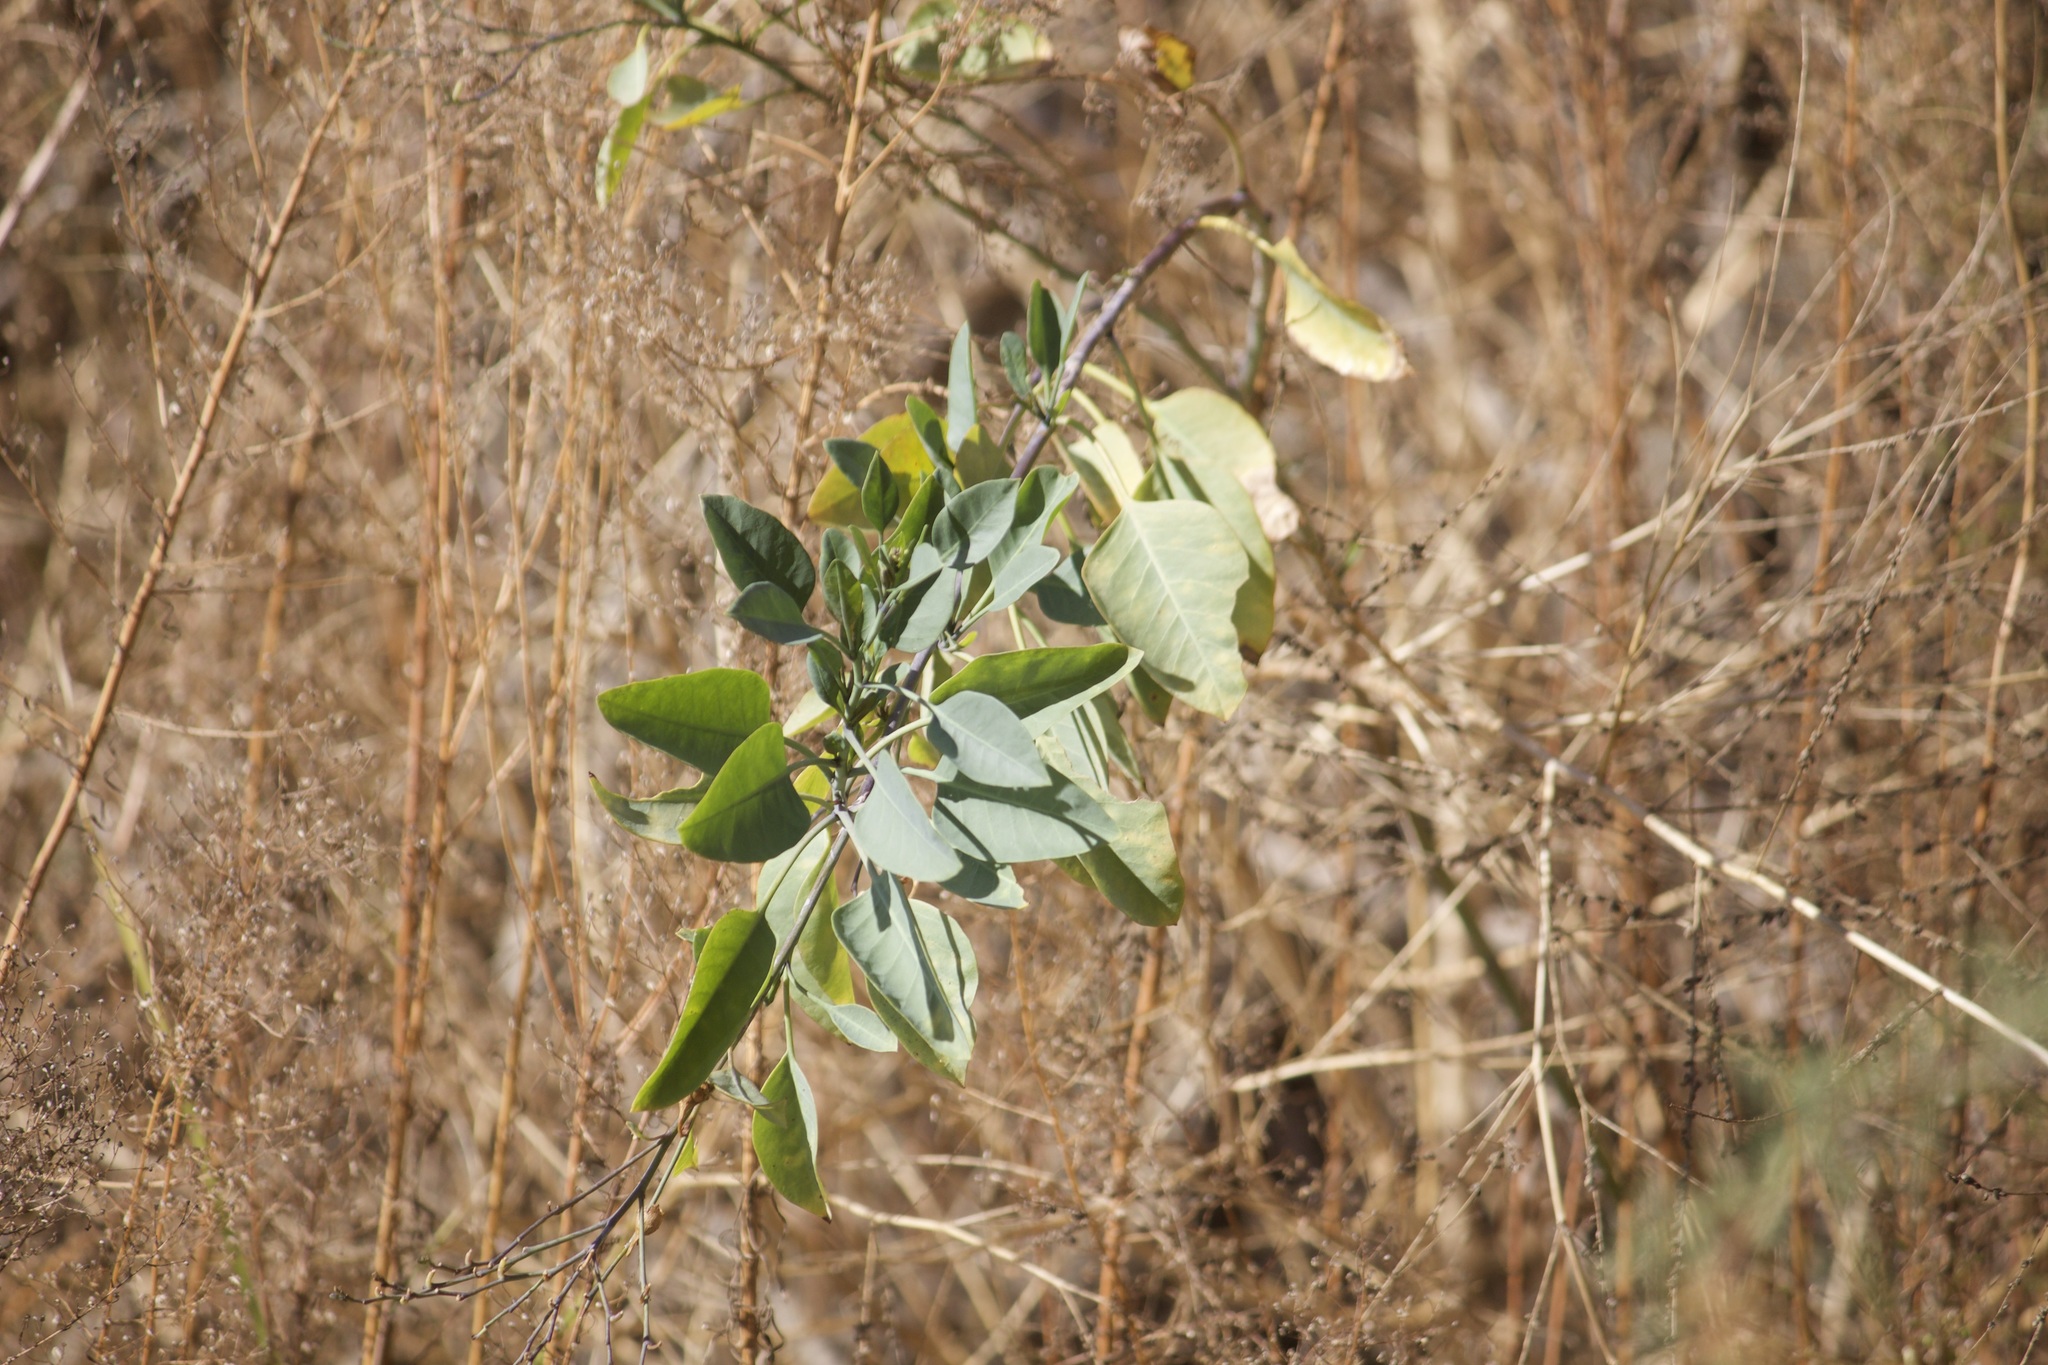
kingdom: Plantae
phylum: Tracheophyta
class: Magnoliopsida
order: Solanales
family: Solanaceae
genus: Nicotiana
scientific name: Nicotiana glauca
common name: Tree tobacco
